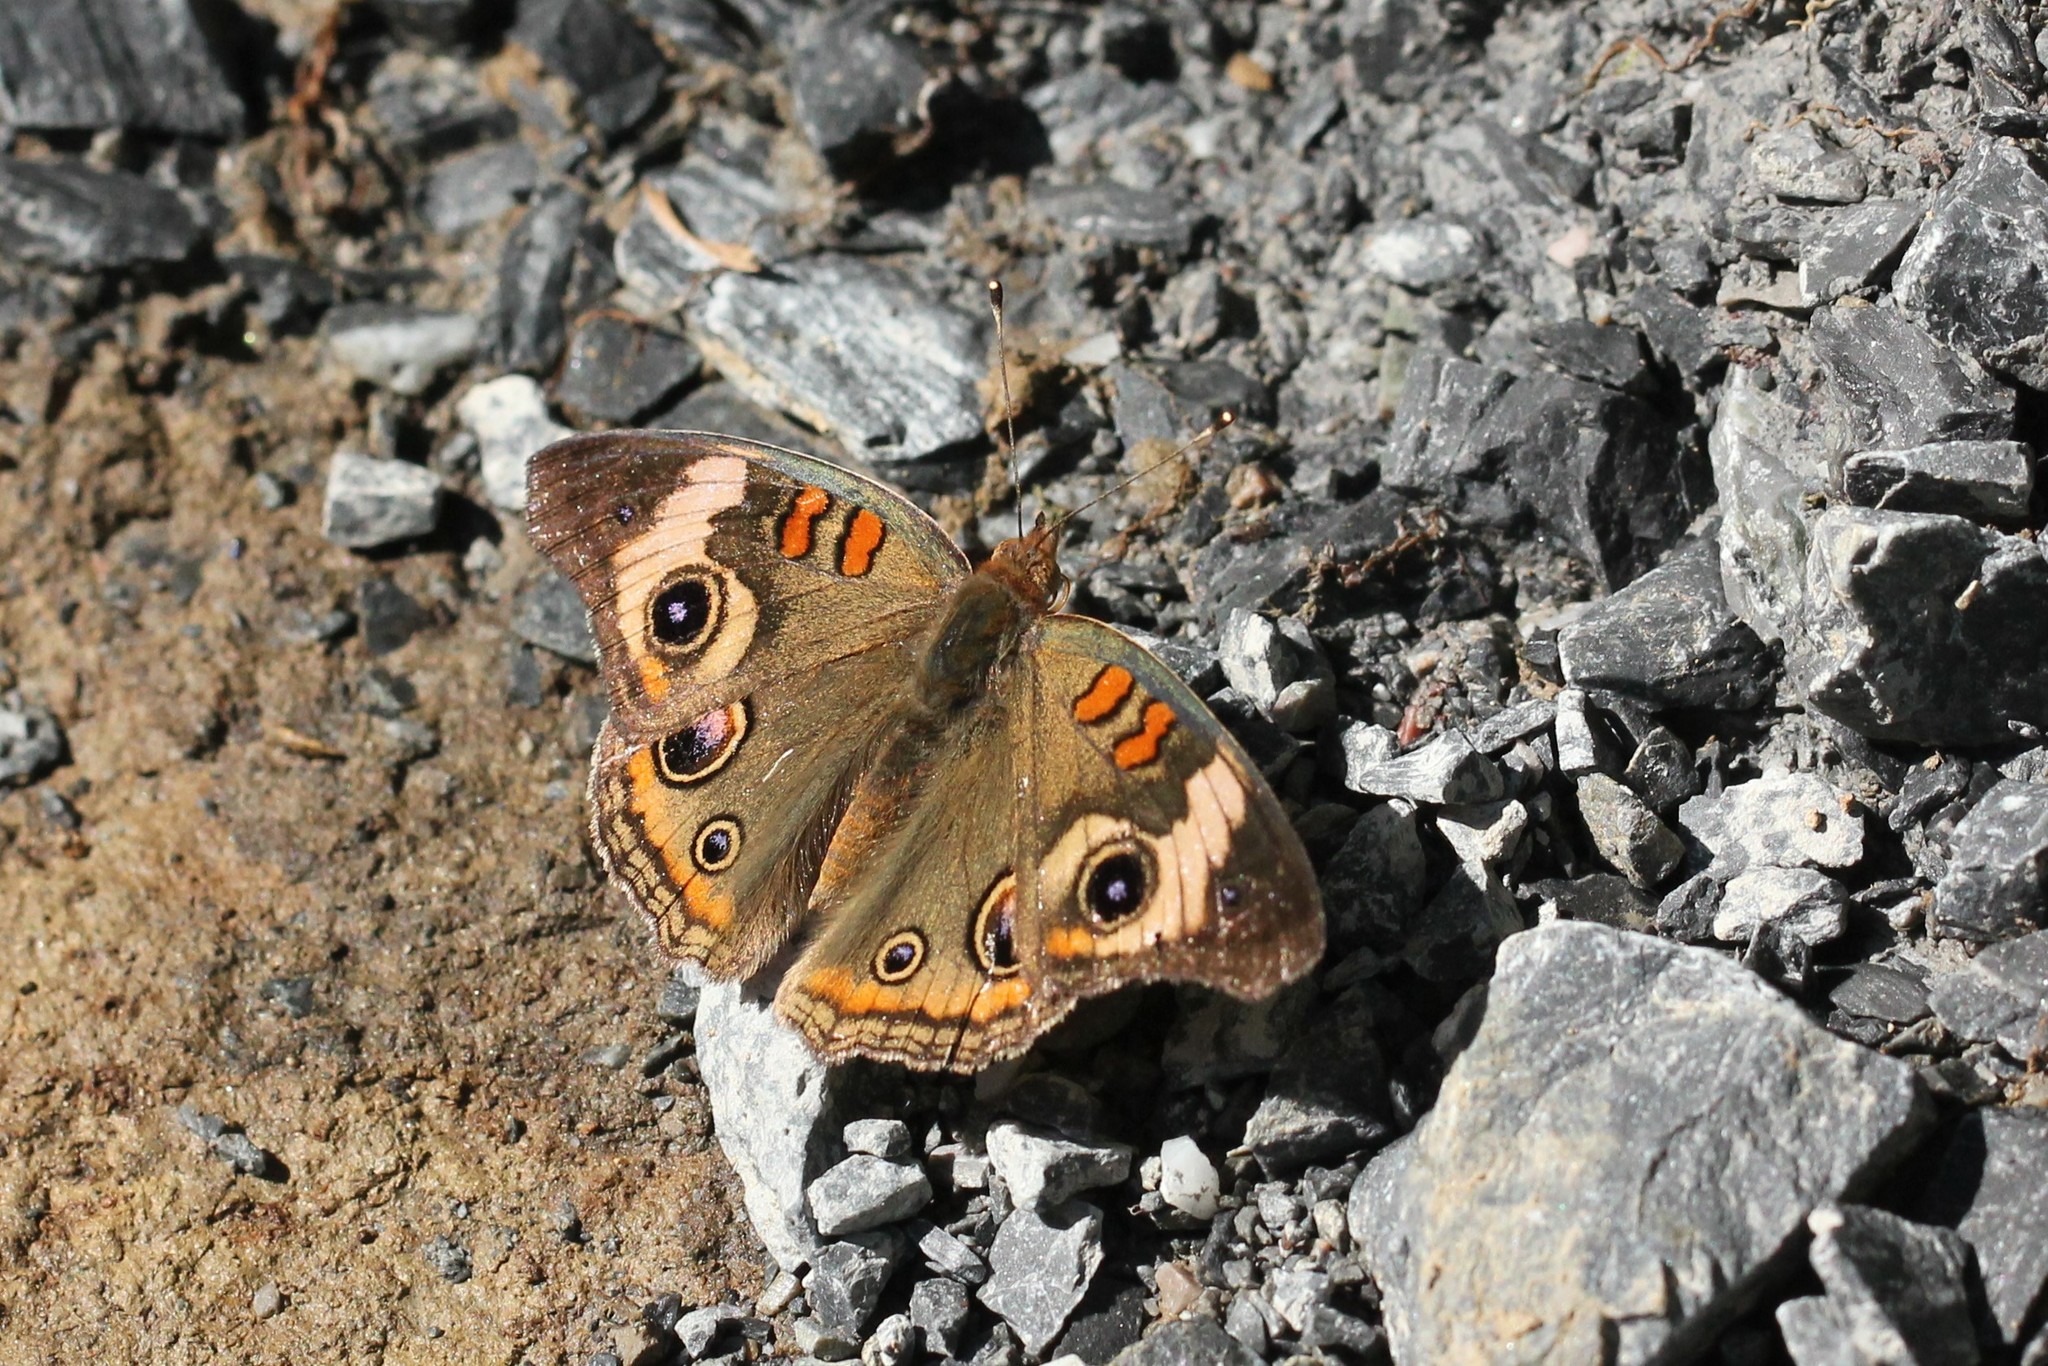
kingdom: Animalia
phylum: Arthropoda
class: Insecta
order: Lepidoptera
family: Nymphalidae
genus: Junonia
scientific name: Junonia coenia
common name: Common buckeye
